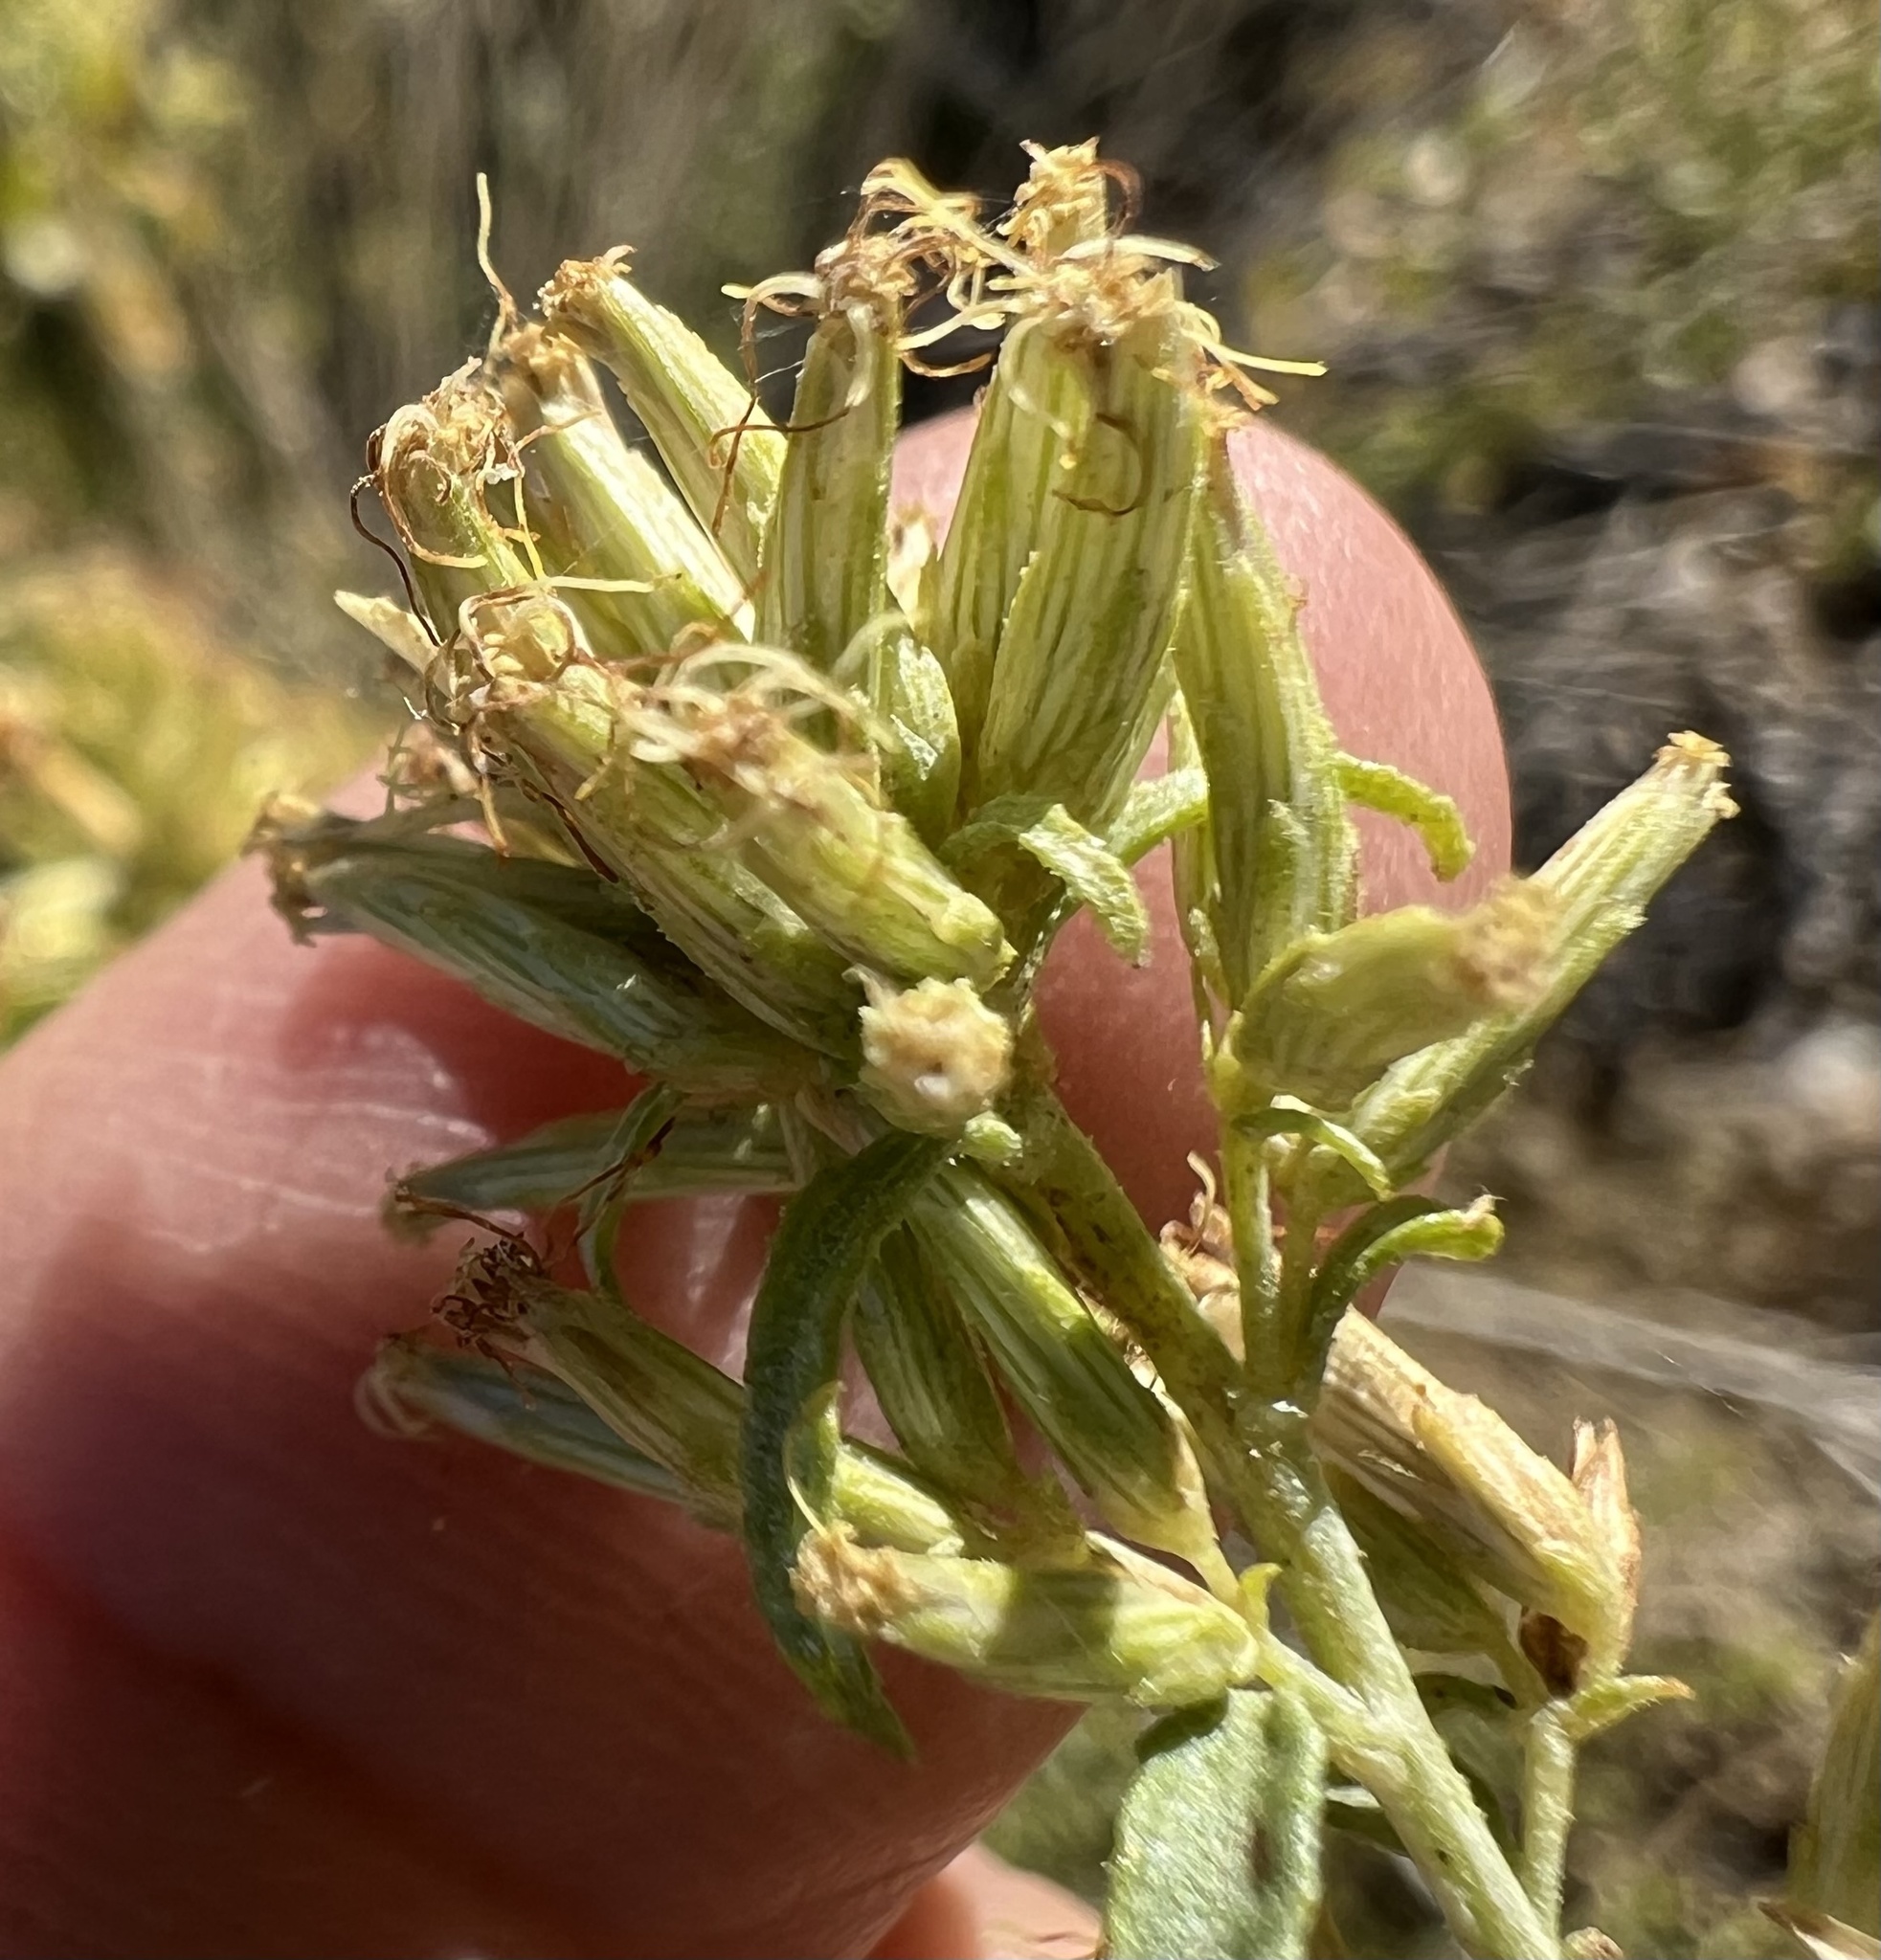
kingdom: Plantae
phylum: Tracheophyta
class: Magnoliopsida
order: Asterales
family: Asteraceae
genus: Brickellia
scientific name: Brickellia longifolia
